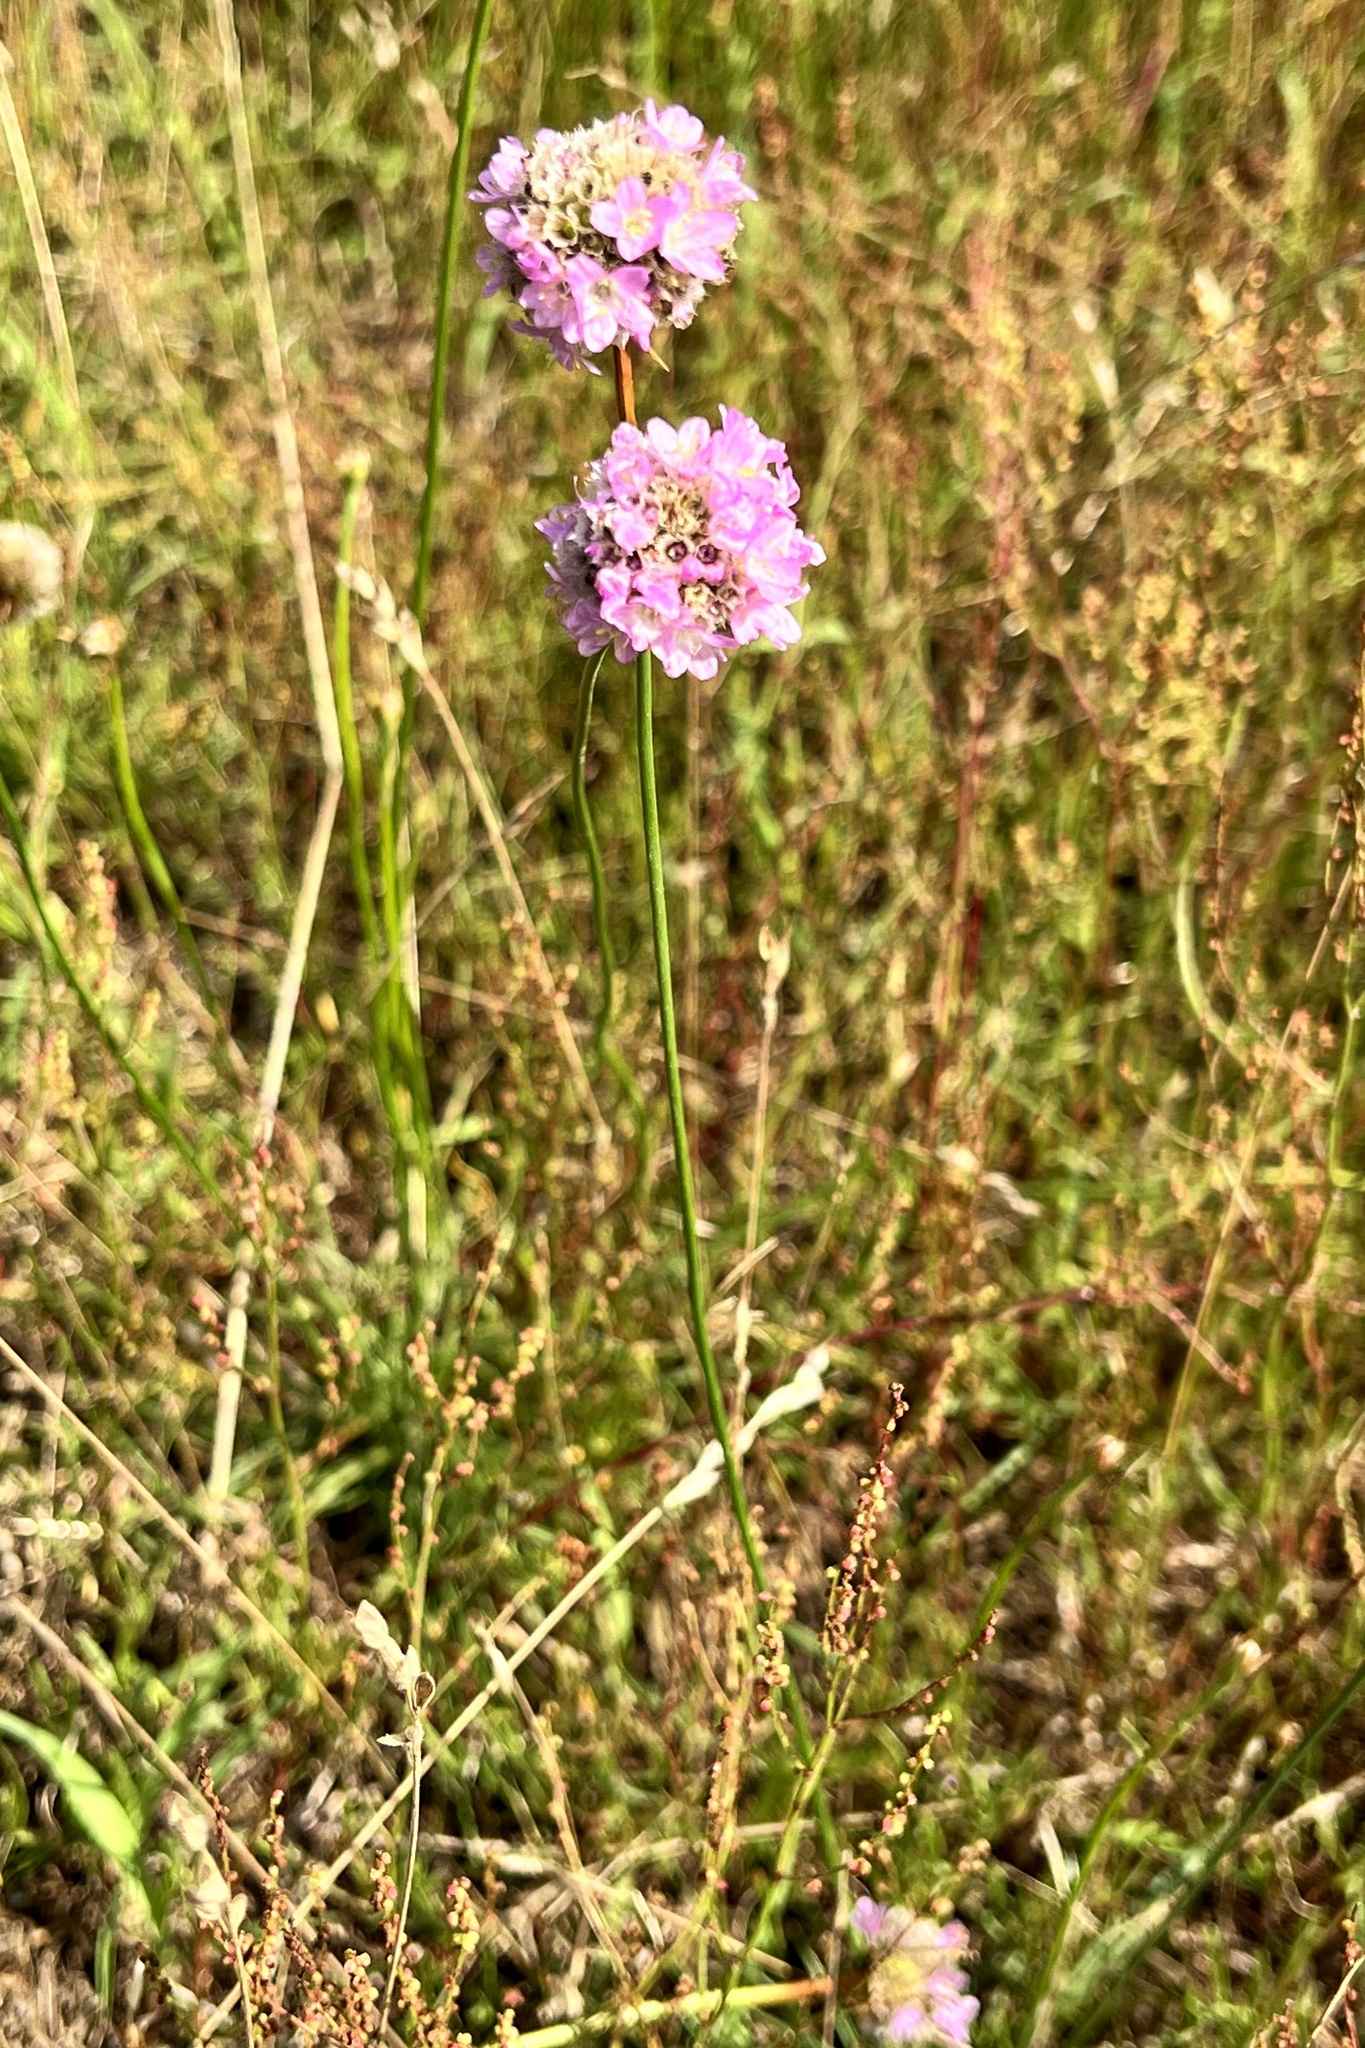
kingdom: Plantae
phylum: Tracheophyta
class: Magnoliopsida
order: Caryophyllales
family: Plumbaginaceae
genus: Armeria
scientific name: Armeria maritima
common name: Thrift
